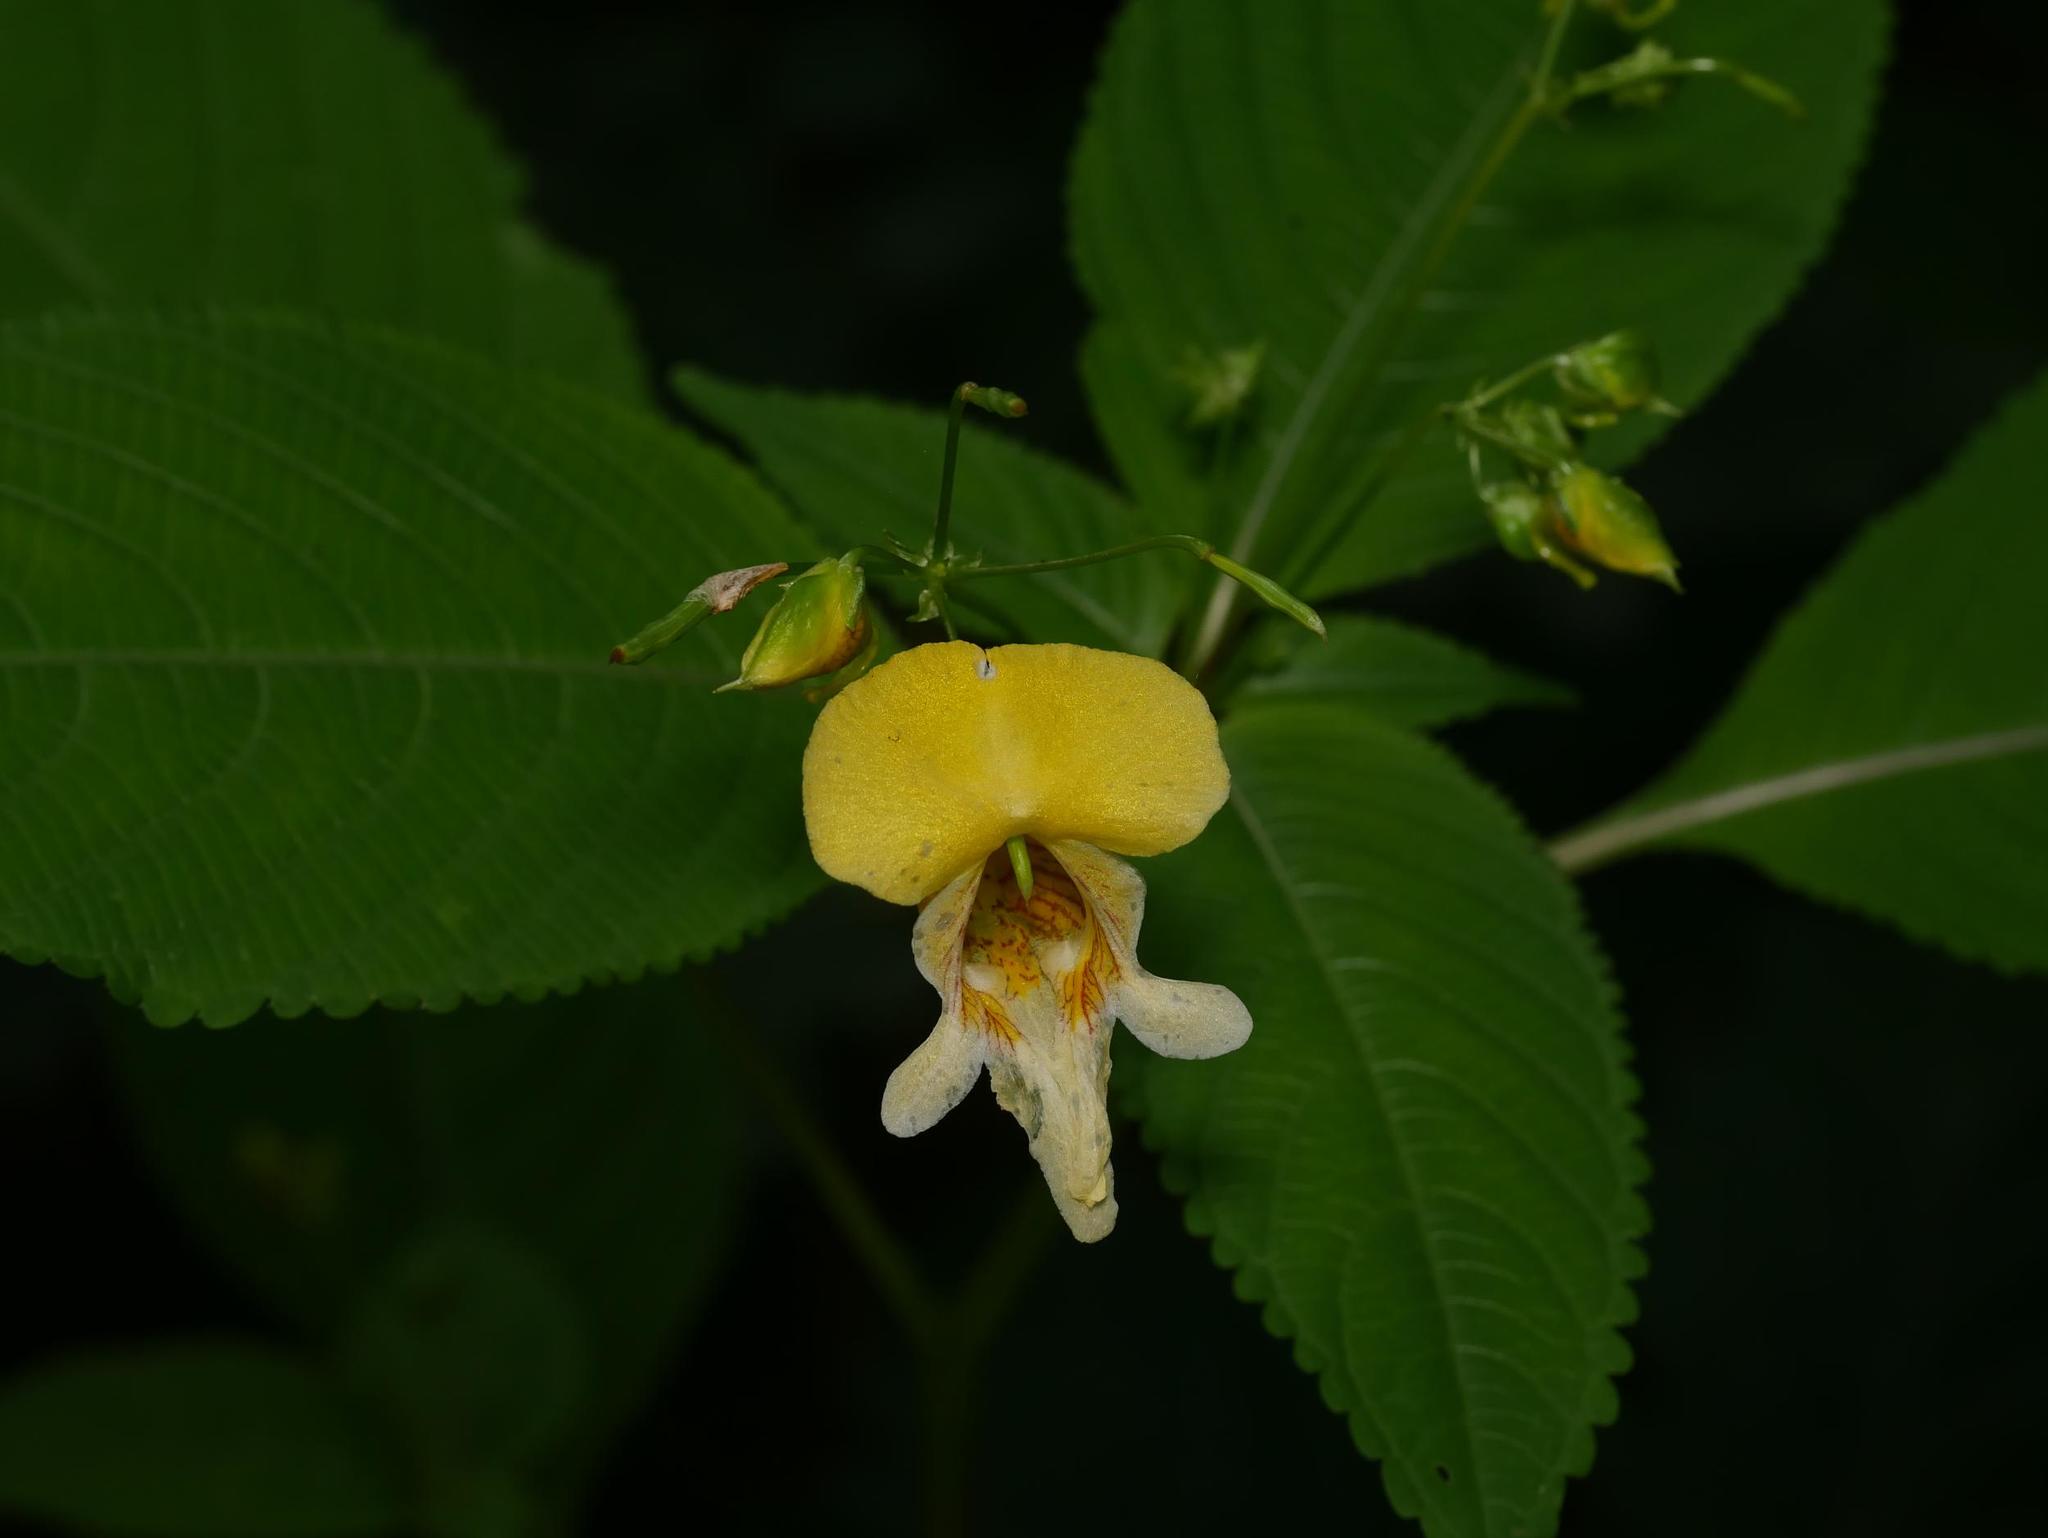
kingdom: Plantae
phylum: Tracheophyta
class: Magnoliopsida
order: Ericales
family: Balsaminaceae
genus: Impatiens
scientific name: Impatiens edgeworthii
